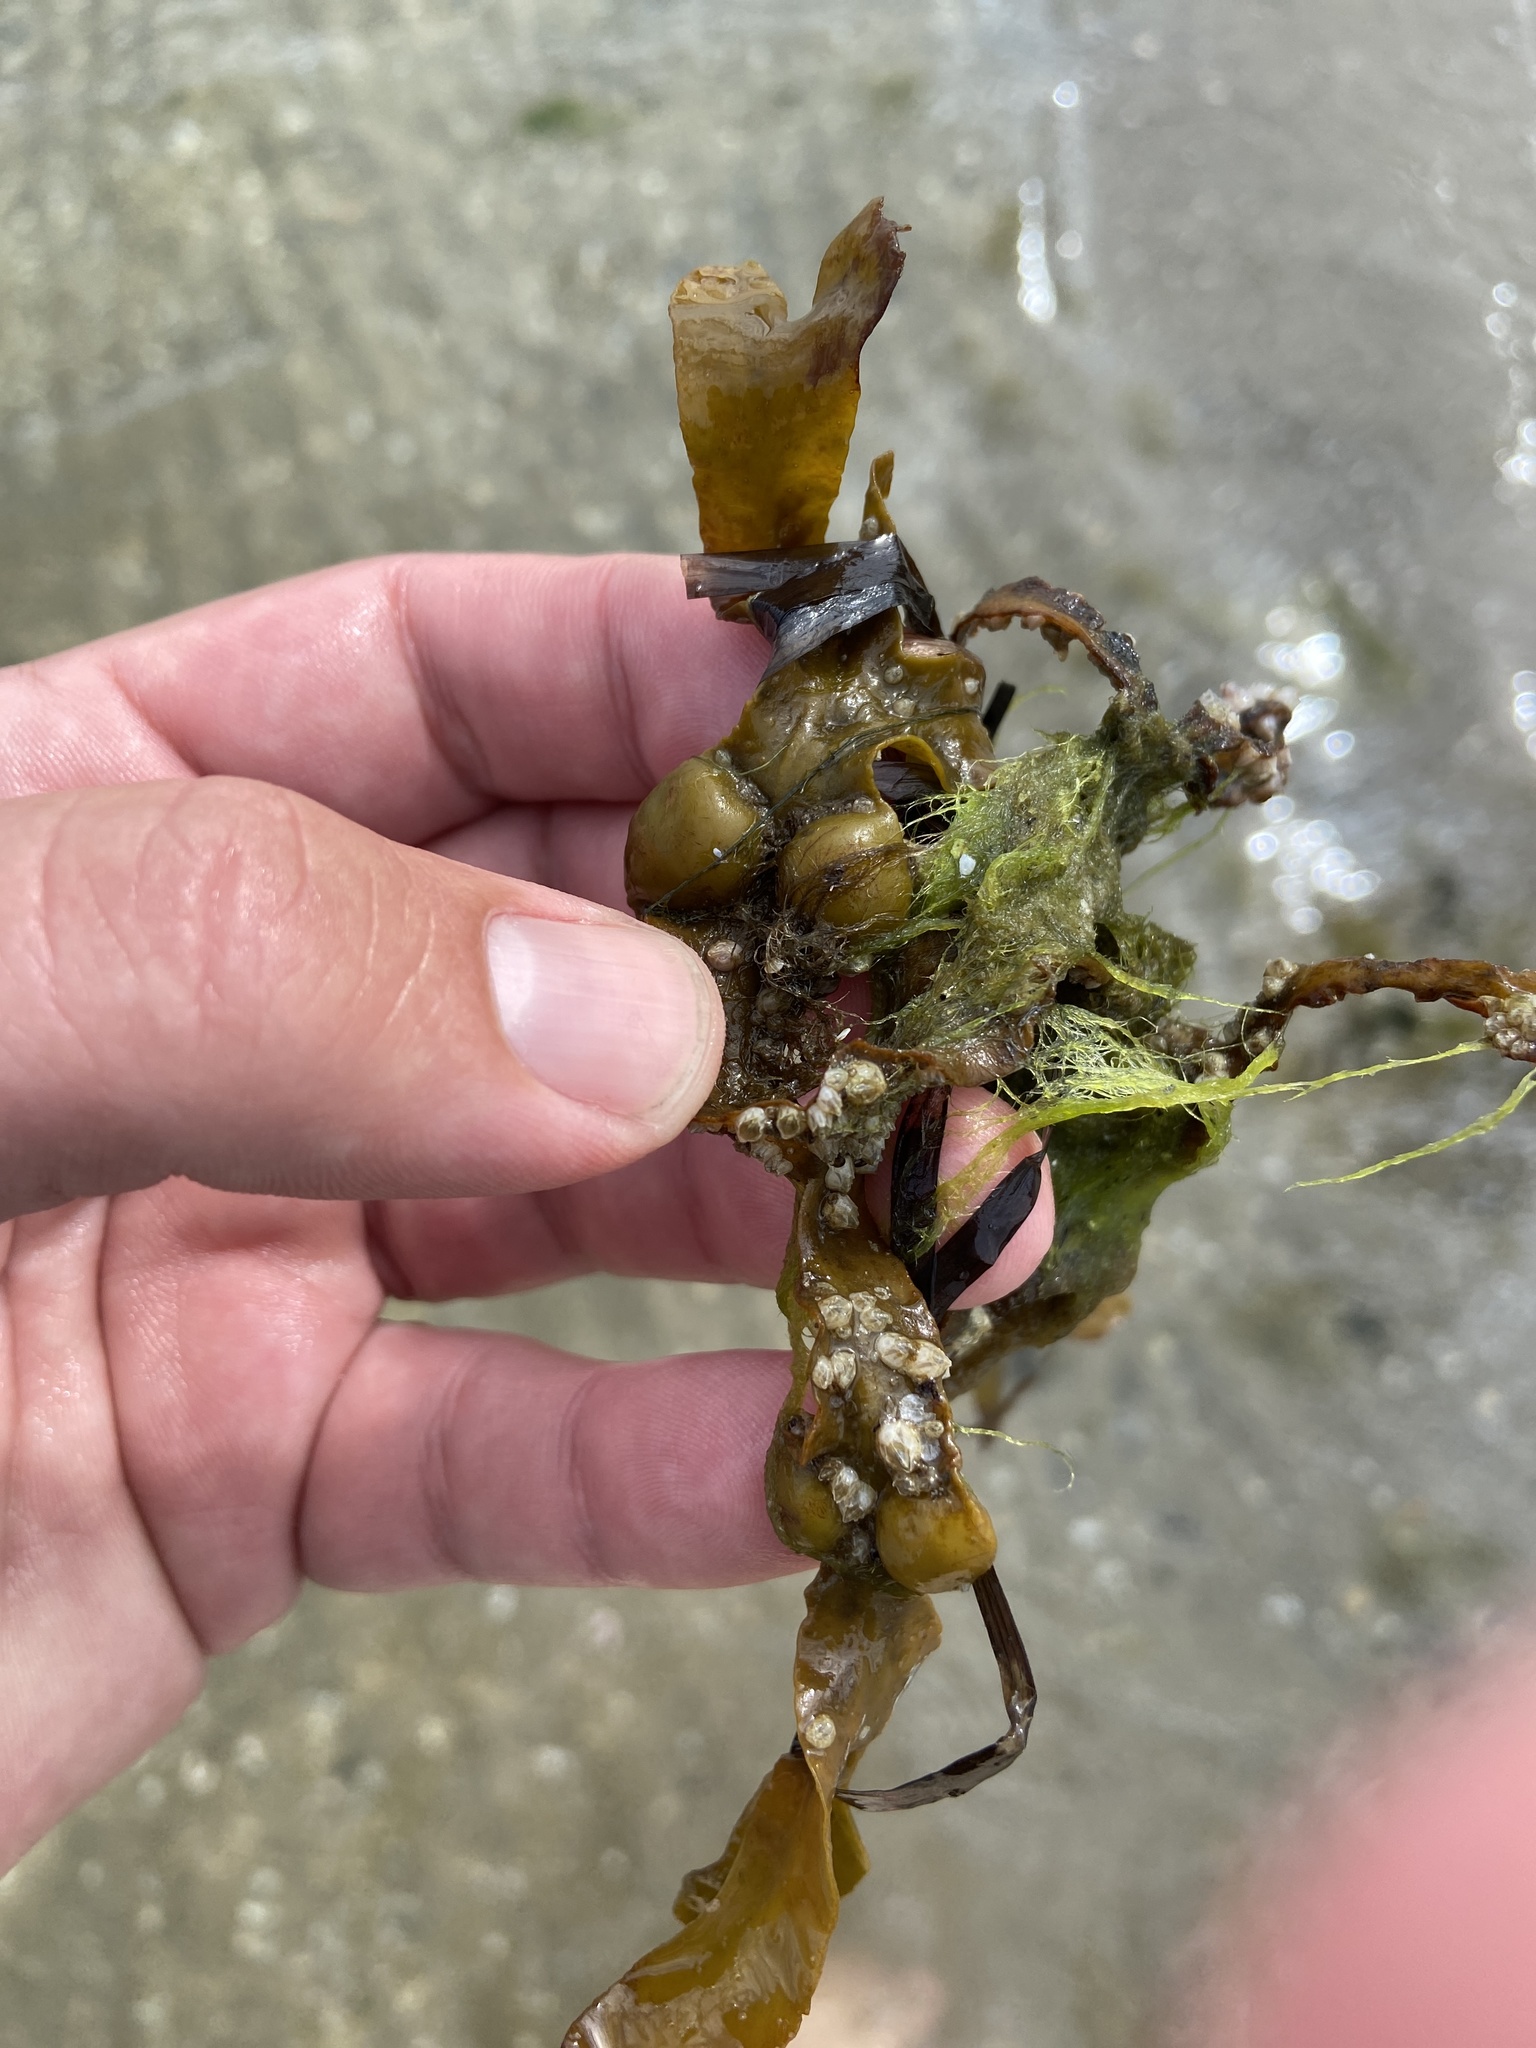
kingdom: Chromista
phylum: Ochrophyta
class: Phaeophyceae
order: Fucales
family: Fucaceae
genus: Fucus
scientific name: Fucus vesiculosus
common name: Bladder wrack
